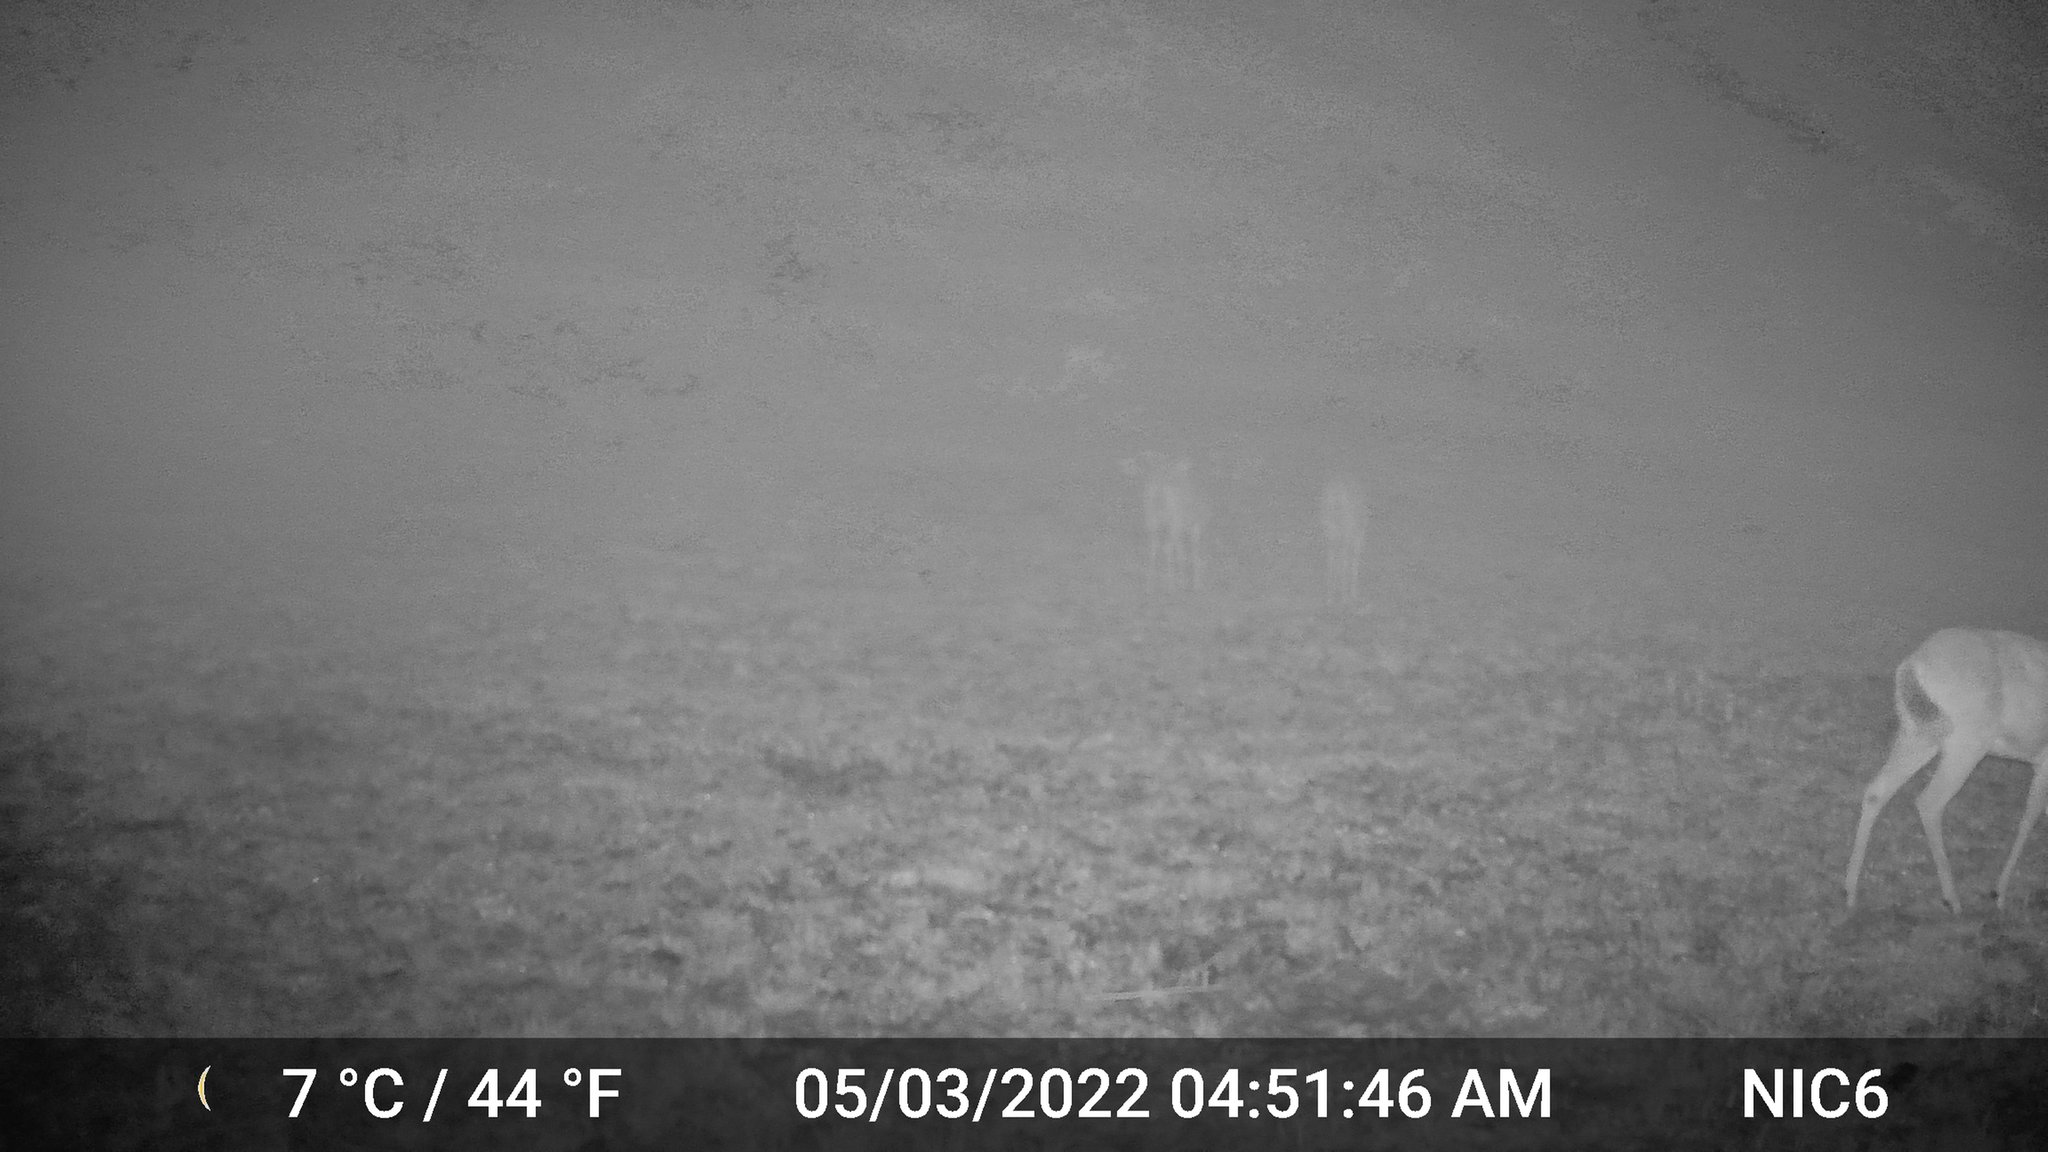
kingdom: Animalia
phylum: Chordata
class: Mammalia
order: Artiodactyla
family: Cervidae
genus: Odocoileus
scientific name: Odocoileus virginianus
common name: White-tailed deer
